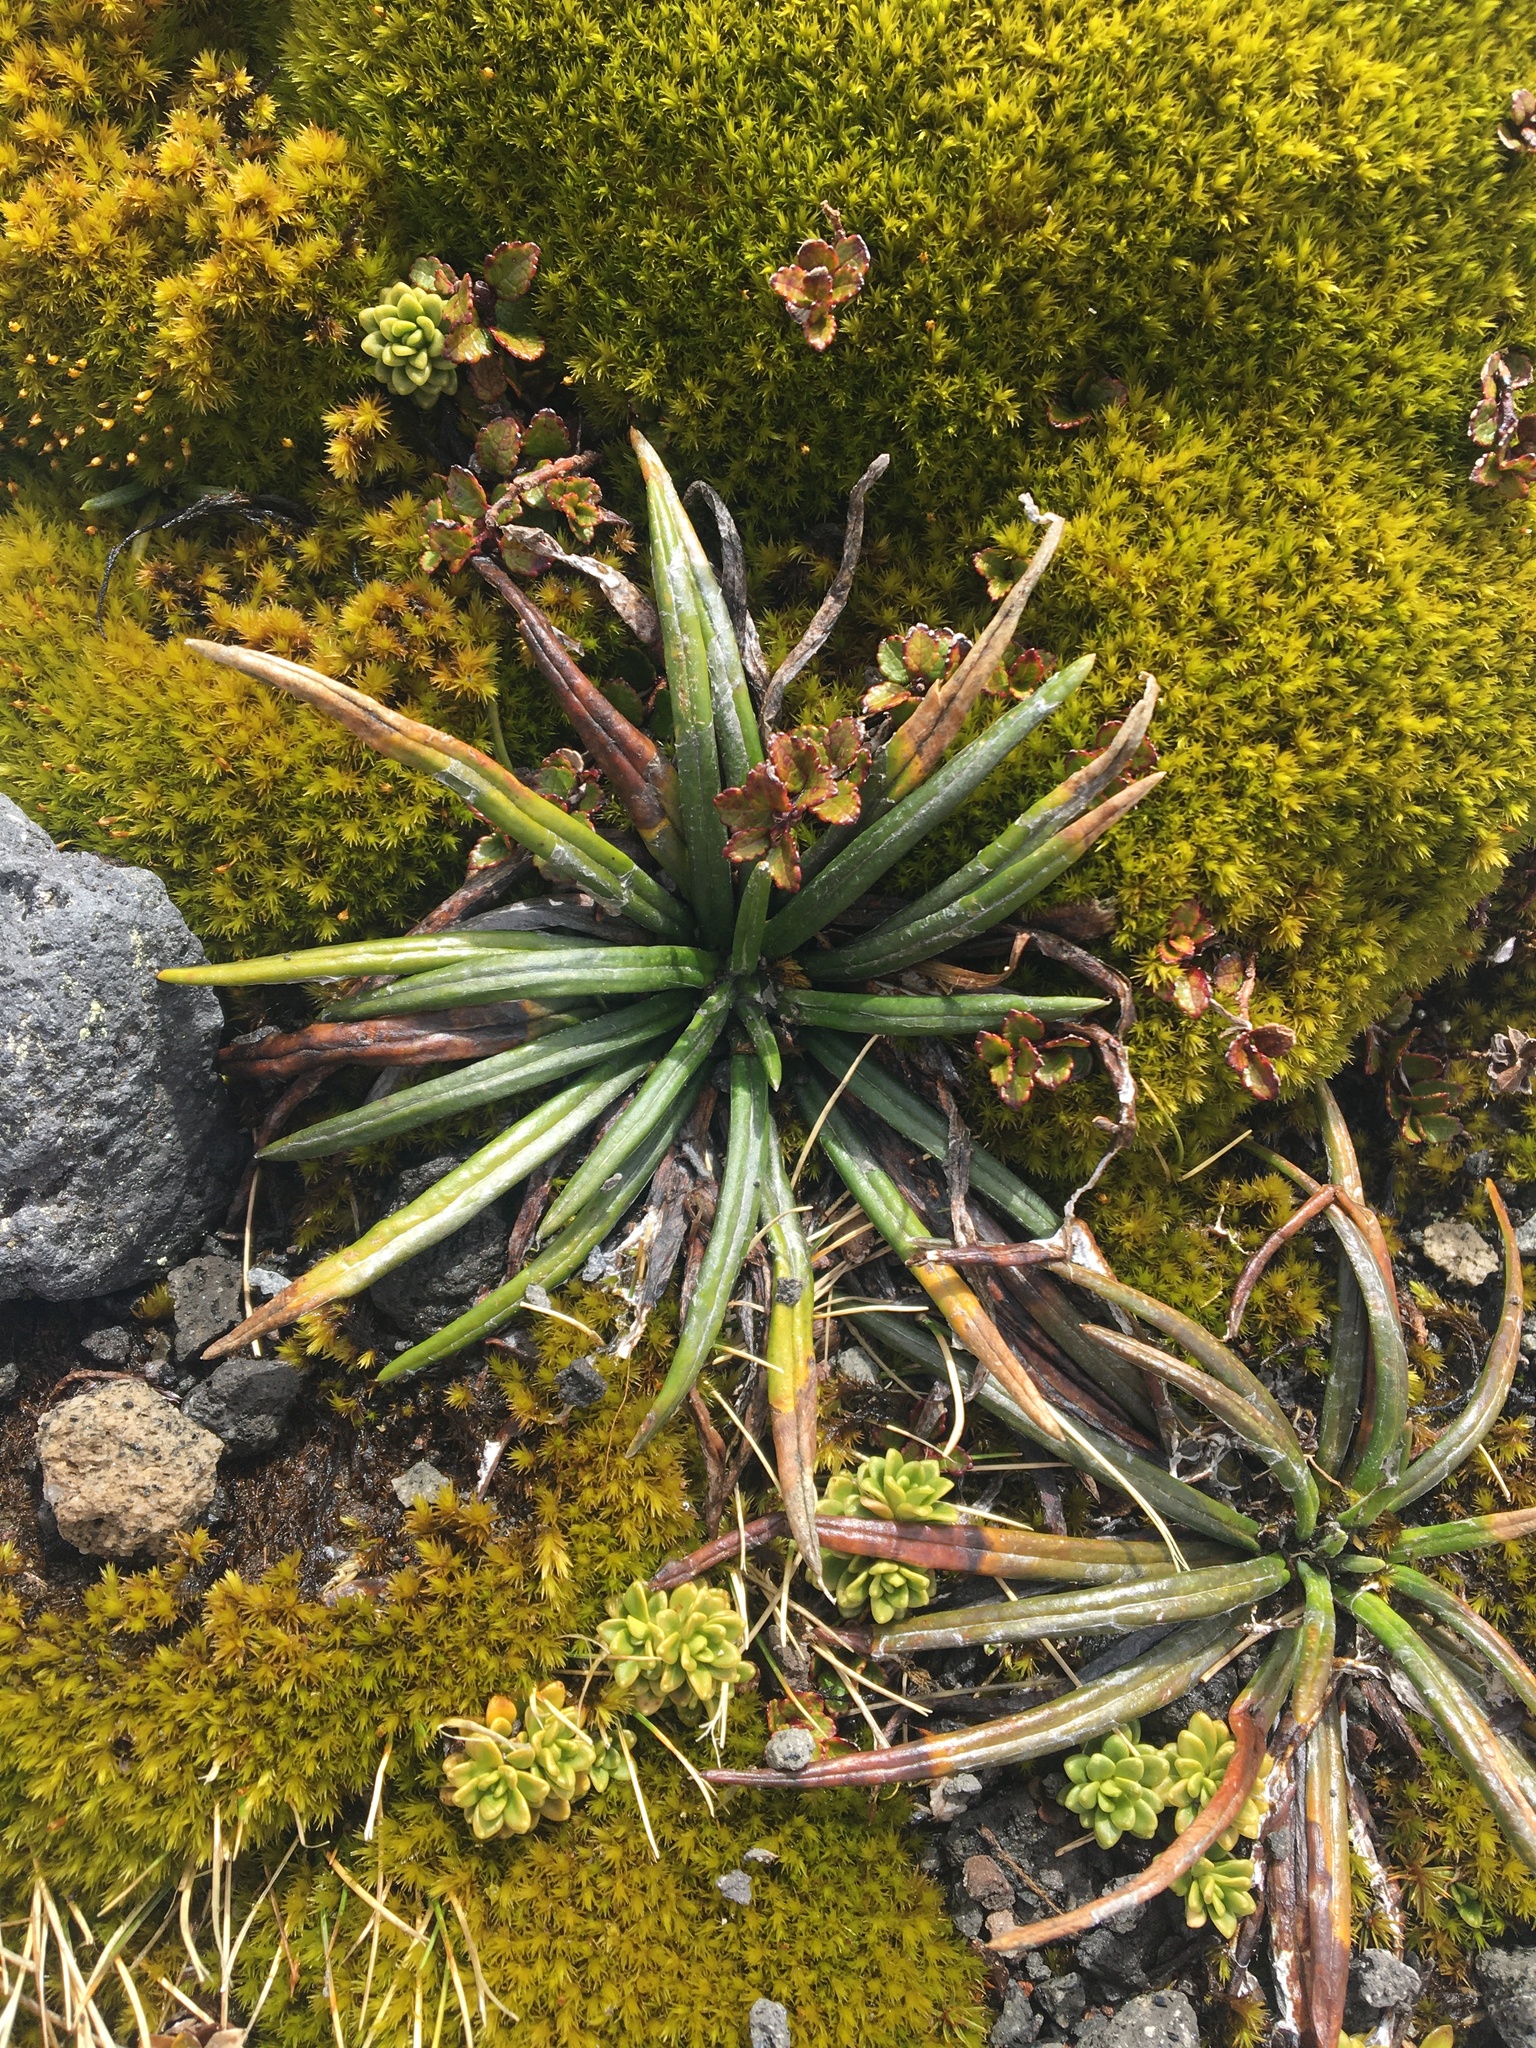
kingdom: Plantae
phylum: Tracheophyta
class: Magnoliopsida
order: Asterales
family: Asteraceae
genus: Celmisia
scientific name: Celmisia major
